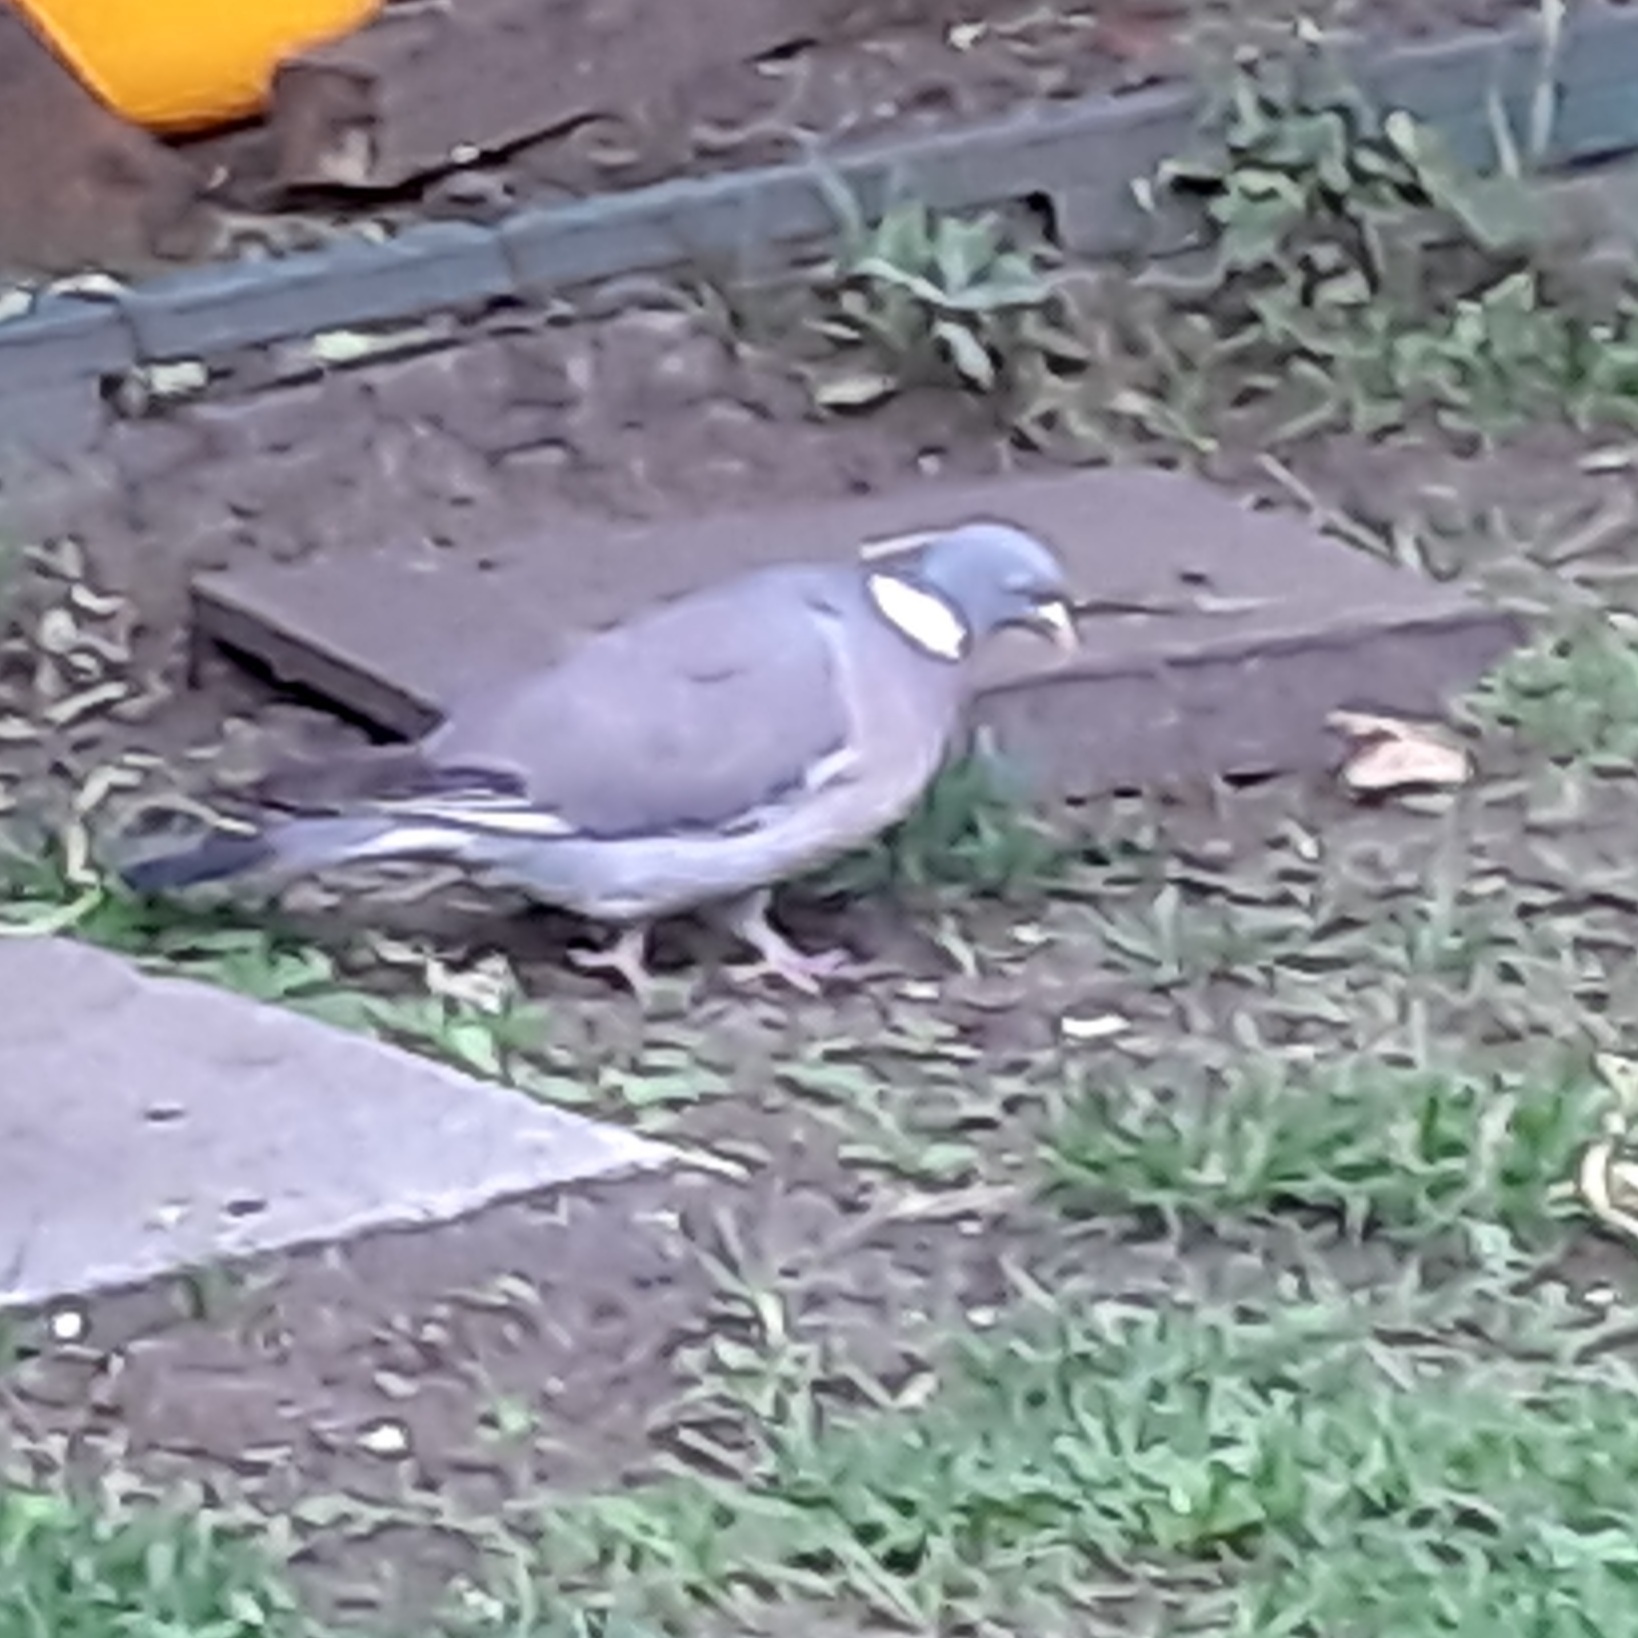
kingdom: Animalia
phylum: Chordata
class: Aves
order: Columbiformes
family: Columbidae
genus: Columba
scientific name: Columba palumbus
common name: Common wood pigeon
